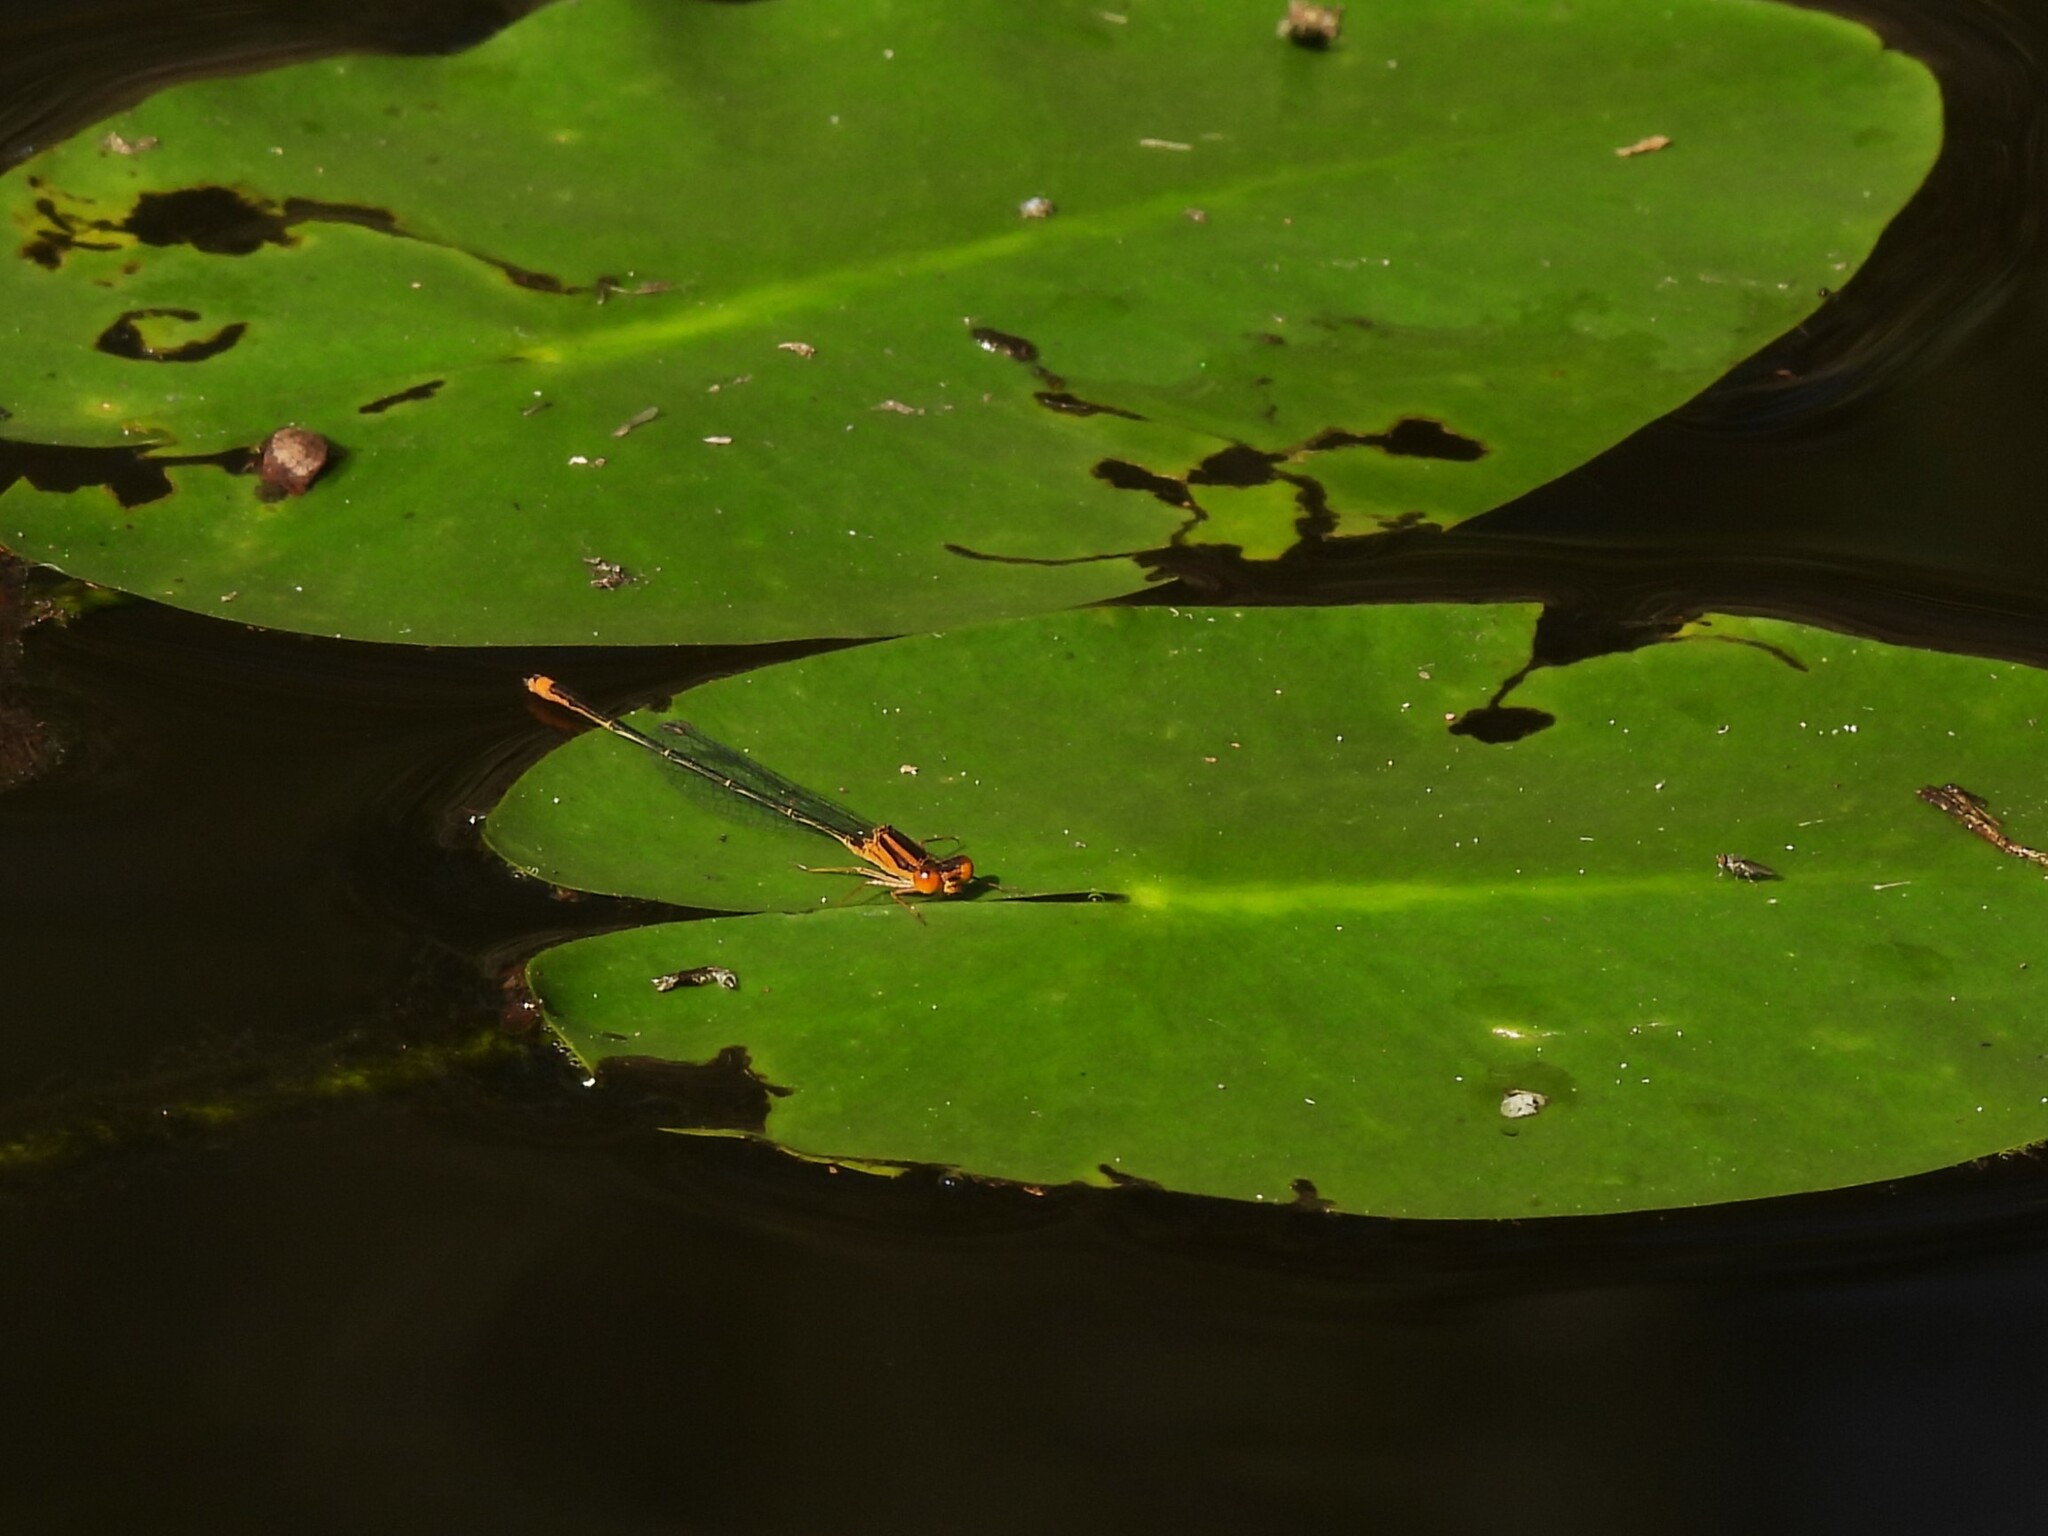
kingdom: Animalia
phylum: Arthropoda
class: Insecta
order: Odonata
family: Coenagrionidae
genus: Enallagma
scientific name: Enallagma pollutum
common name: Florida bluet
